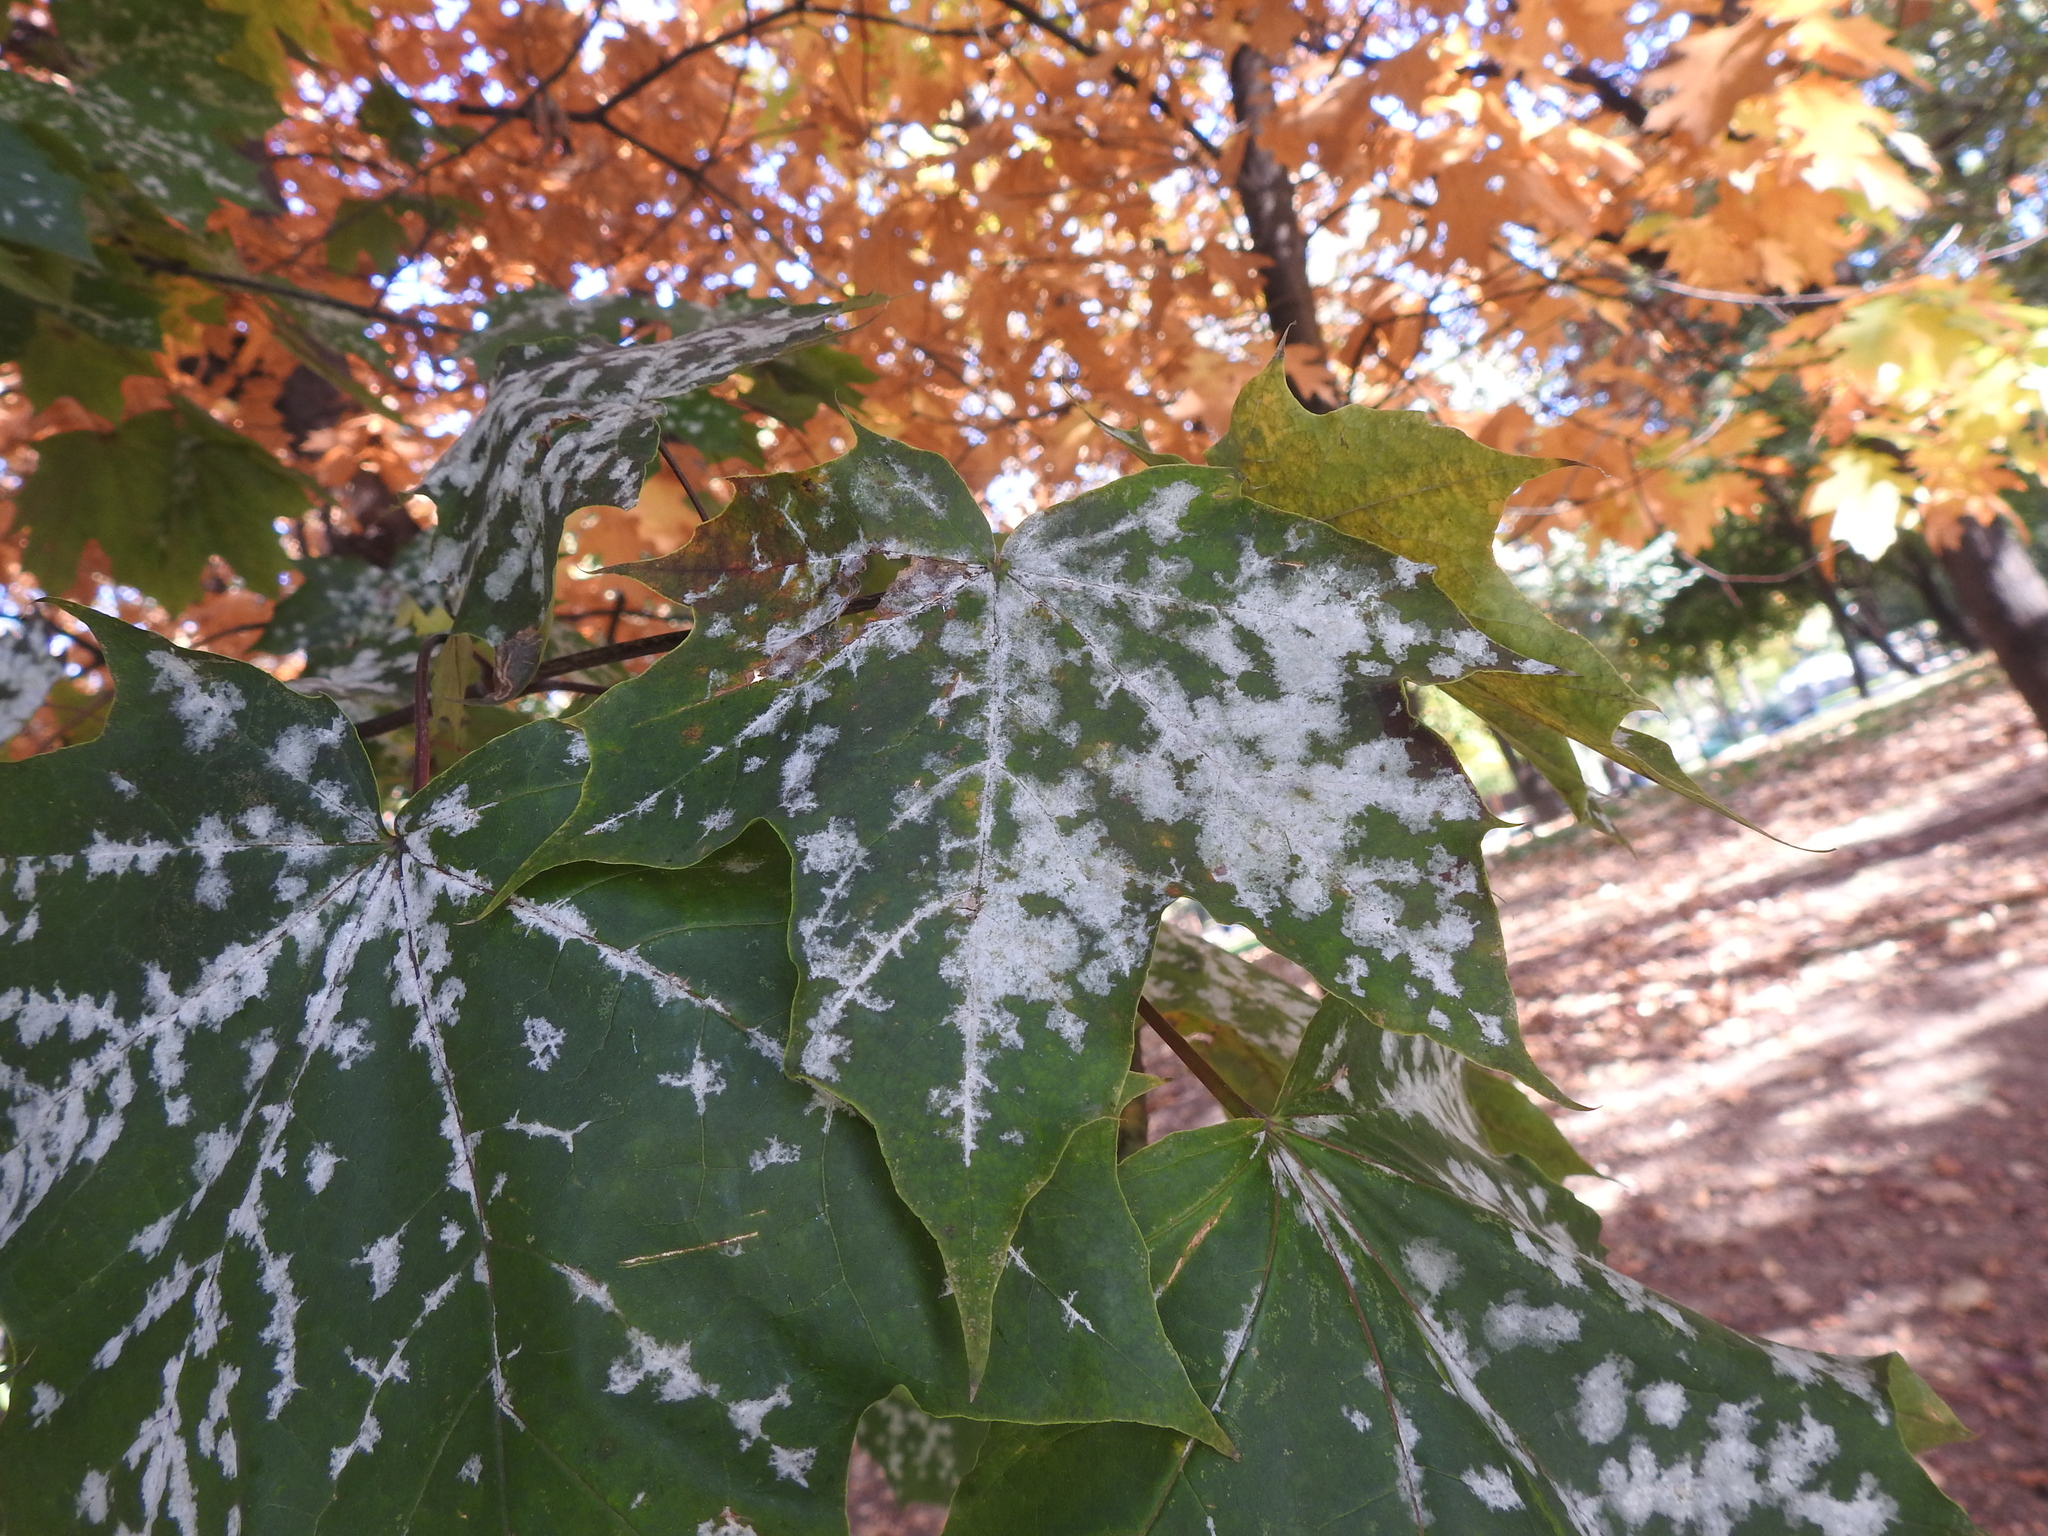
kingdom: Fungi
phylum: Ascomycota
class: Leotiomycetes
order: Helotiales
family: Erysiphaceae
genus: Sawadaea
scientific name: Sawadaea tulasnei
